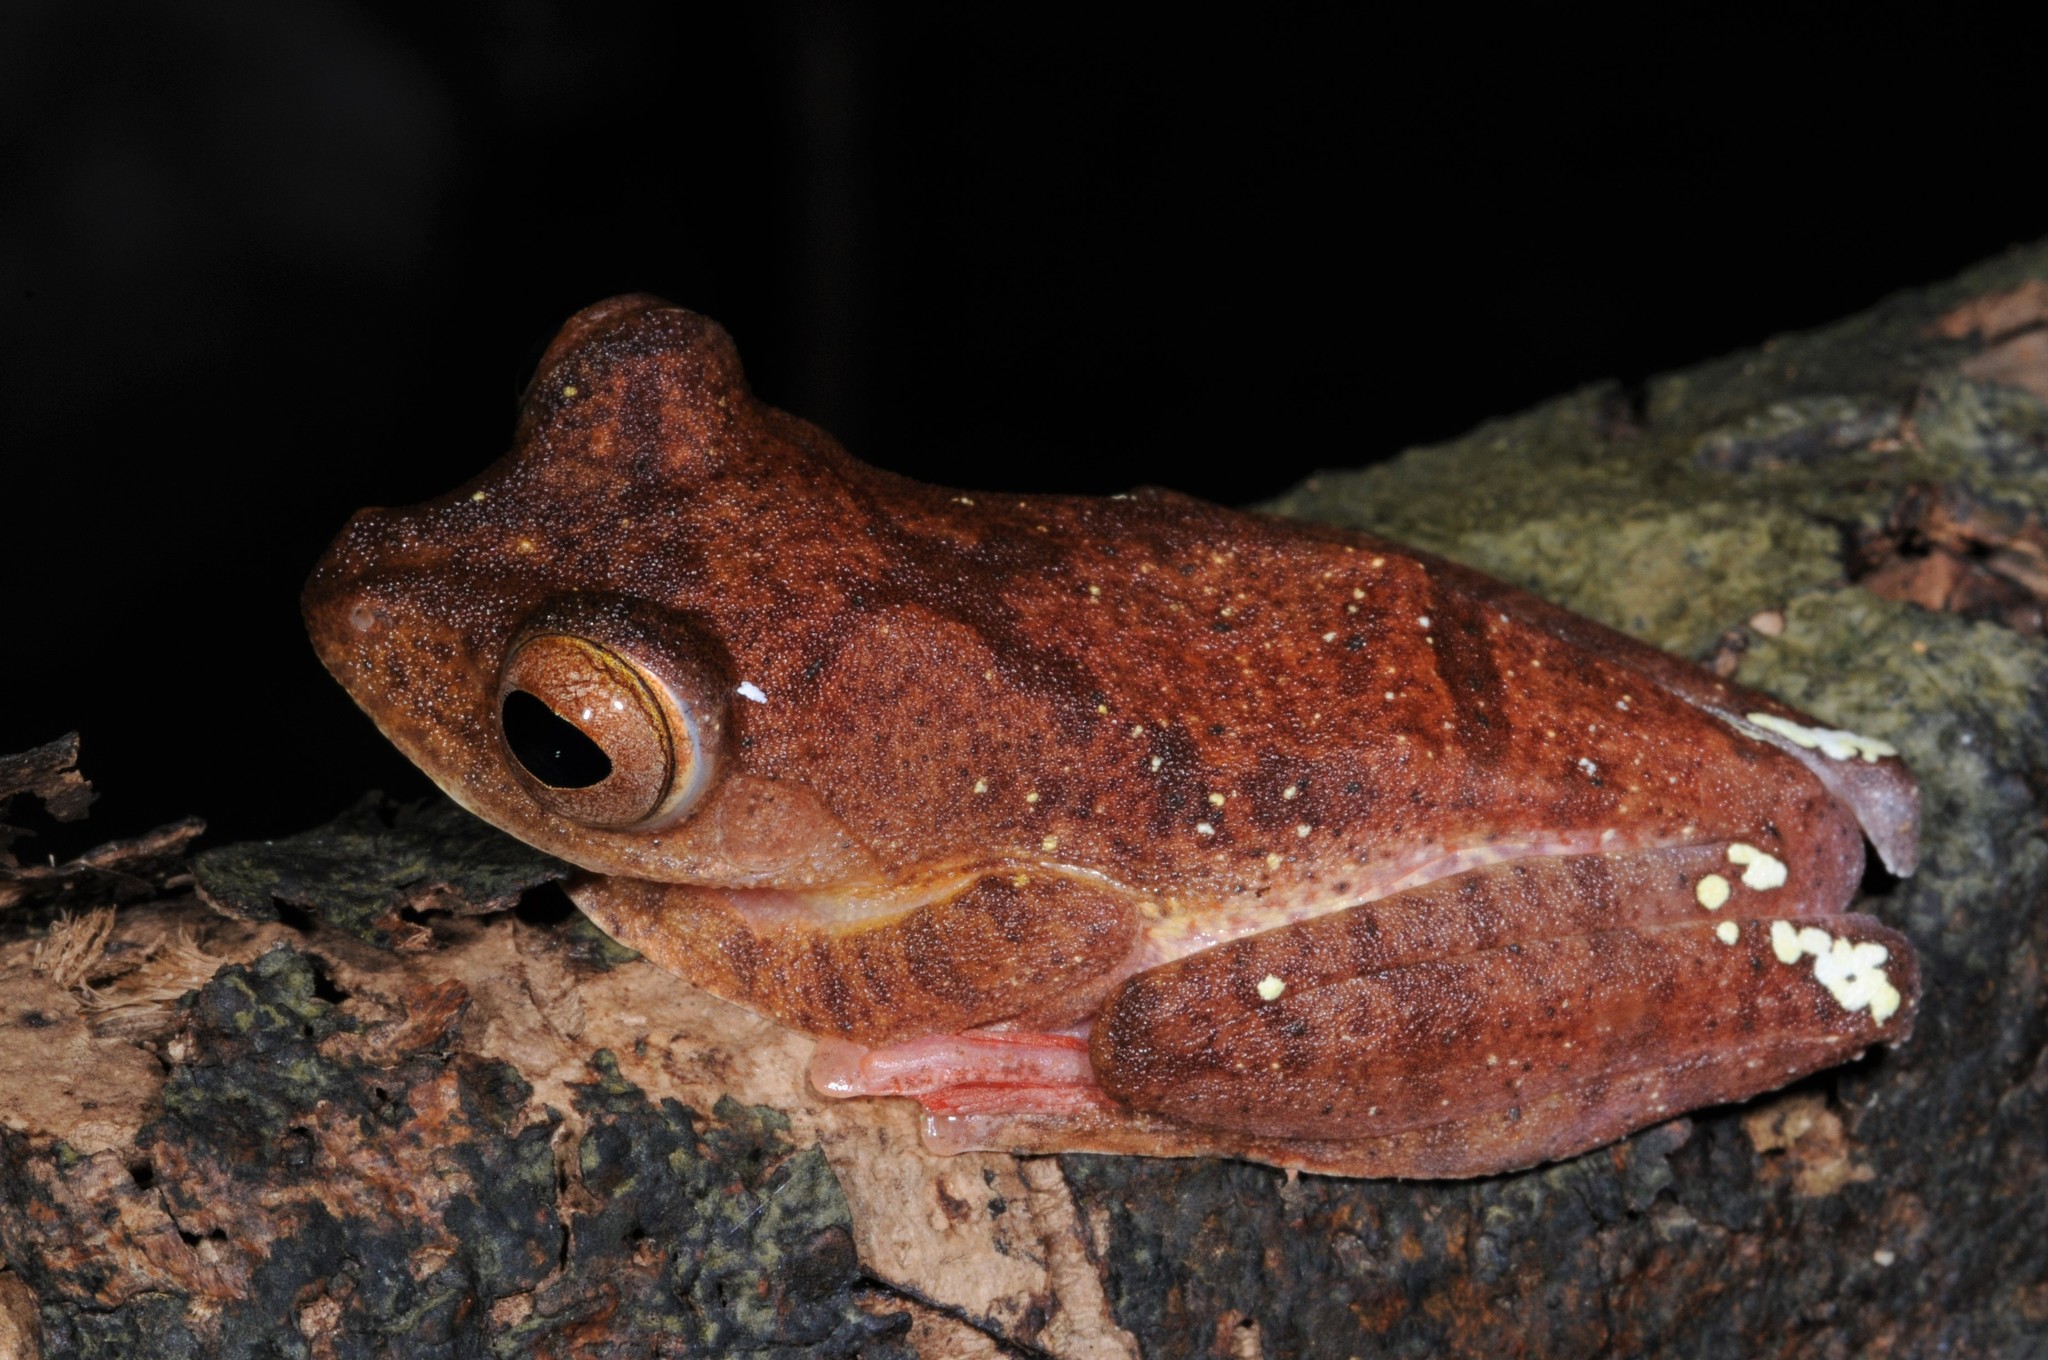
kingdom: Animalia
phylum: Chordata
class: Amphibia
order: Anura
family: Rhacophoridae
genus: Rhacophorus
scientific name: Rhacophorus pardalis
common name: Harlequin tree frog
